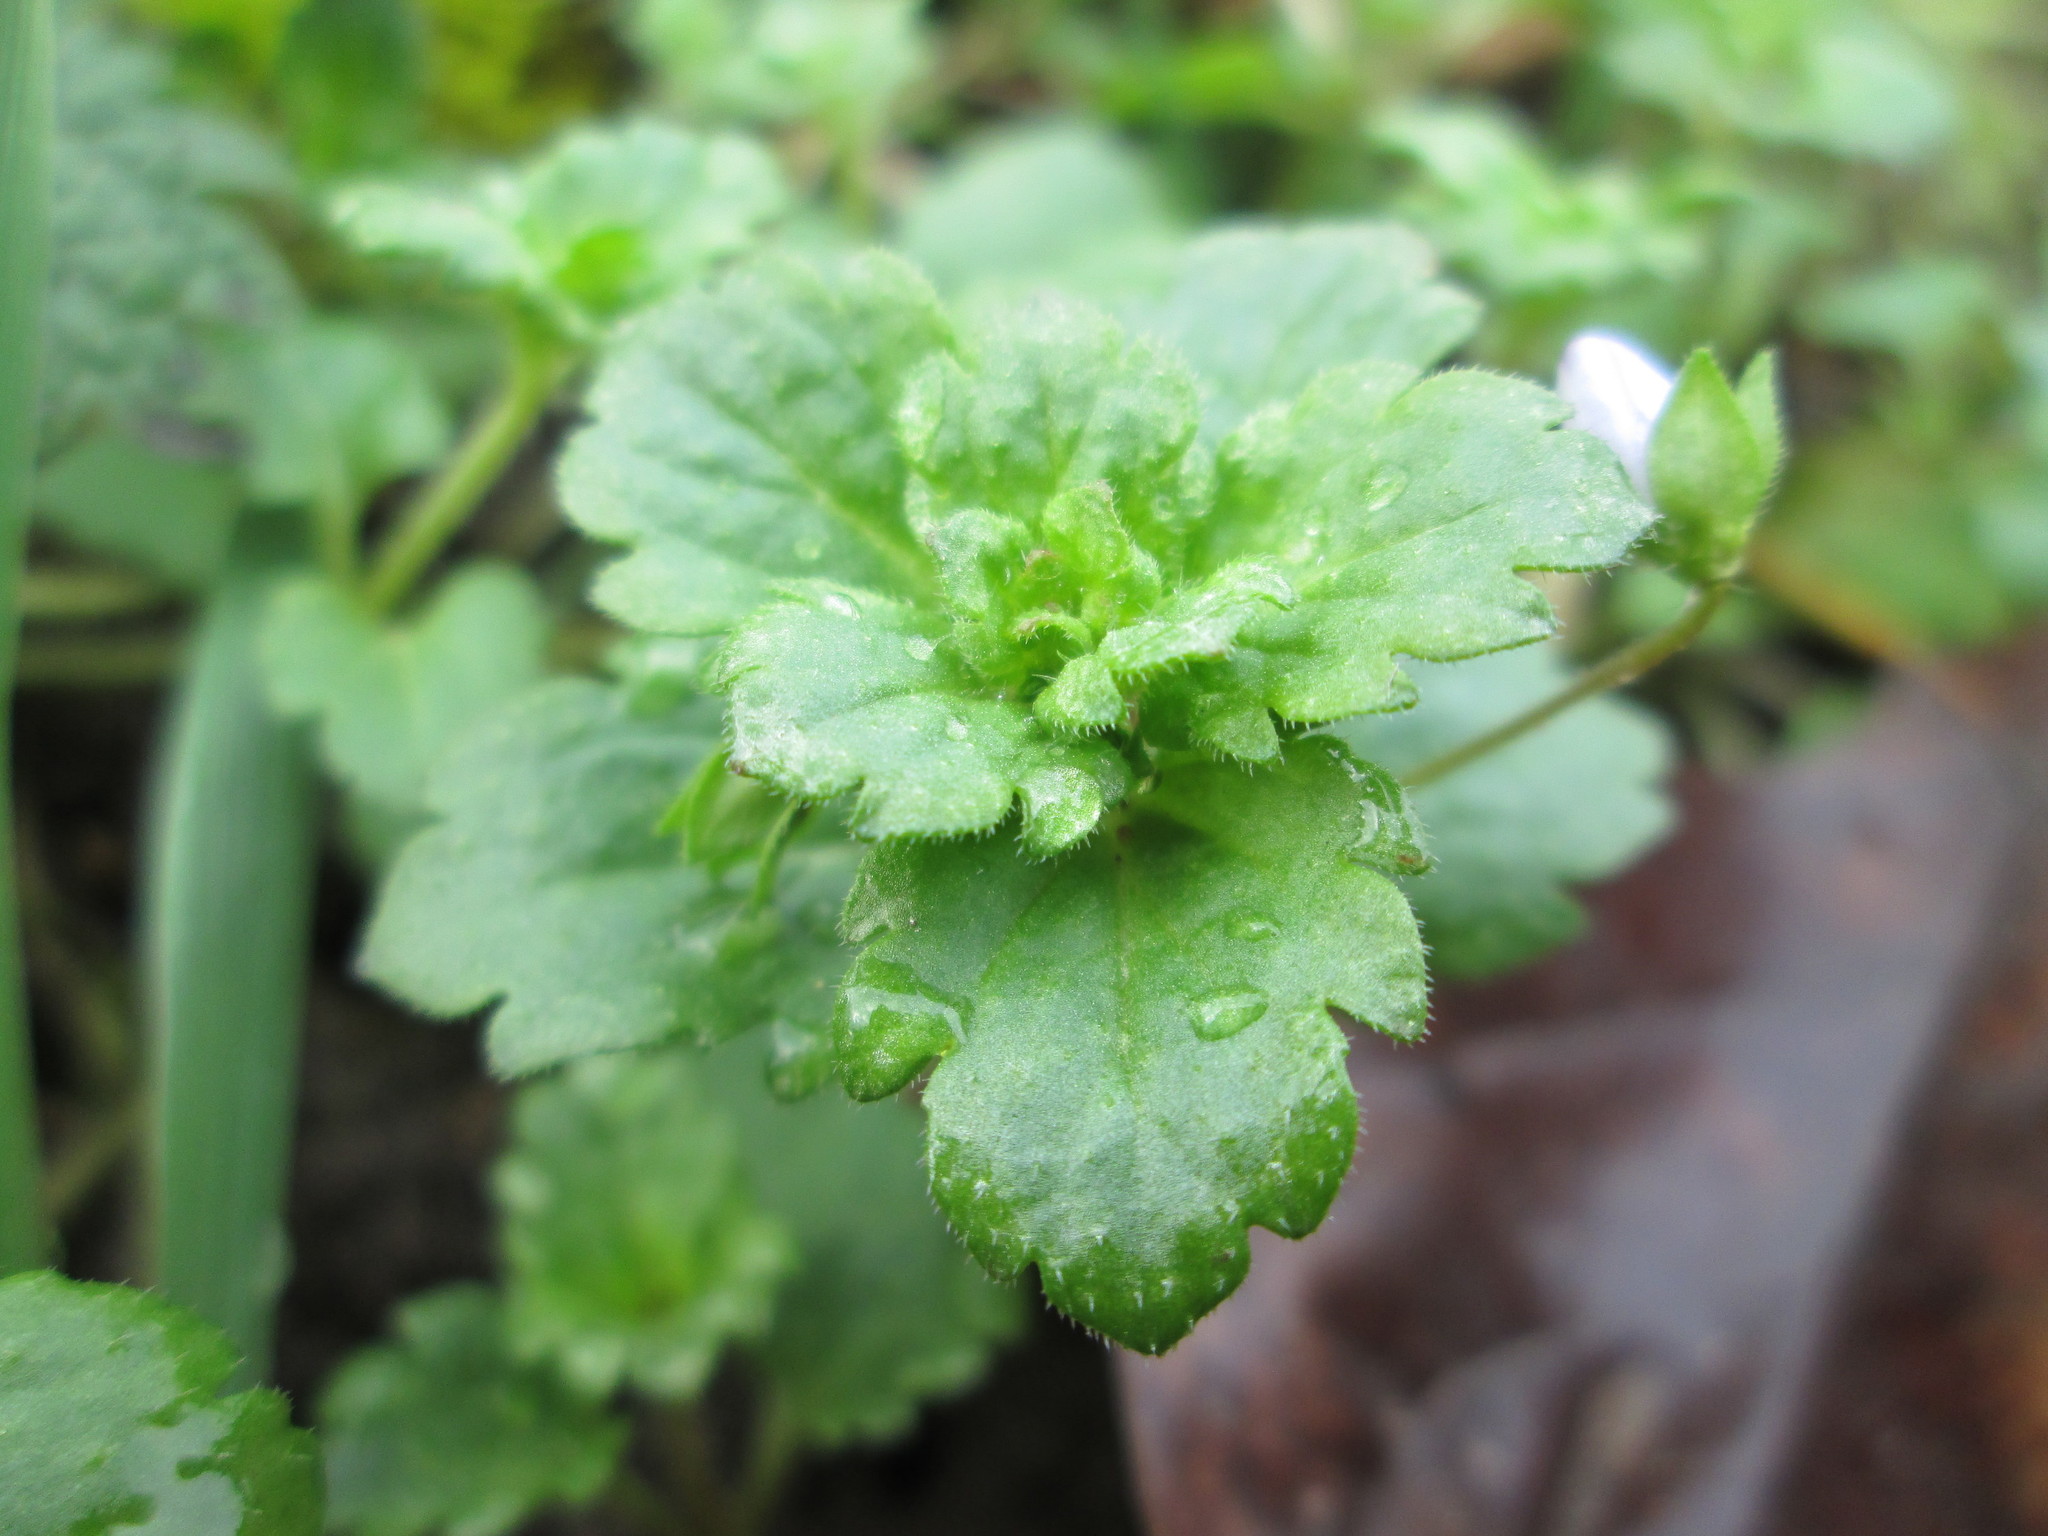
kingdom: Plantae
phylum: Tracheophyta
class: Magnoliopsida
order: Lamiales
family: Plantaginaceae
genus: Veronica
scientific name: Veronica persica
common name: Common field-speedwell
